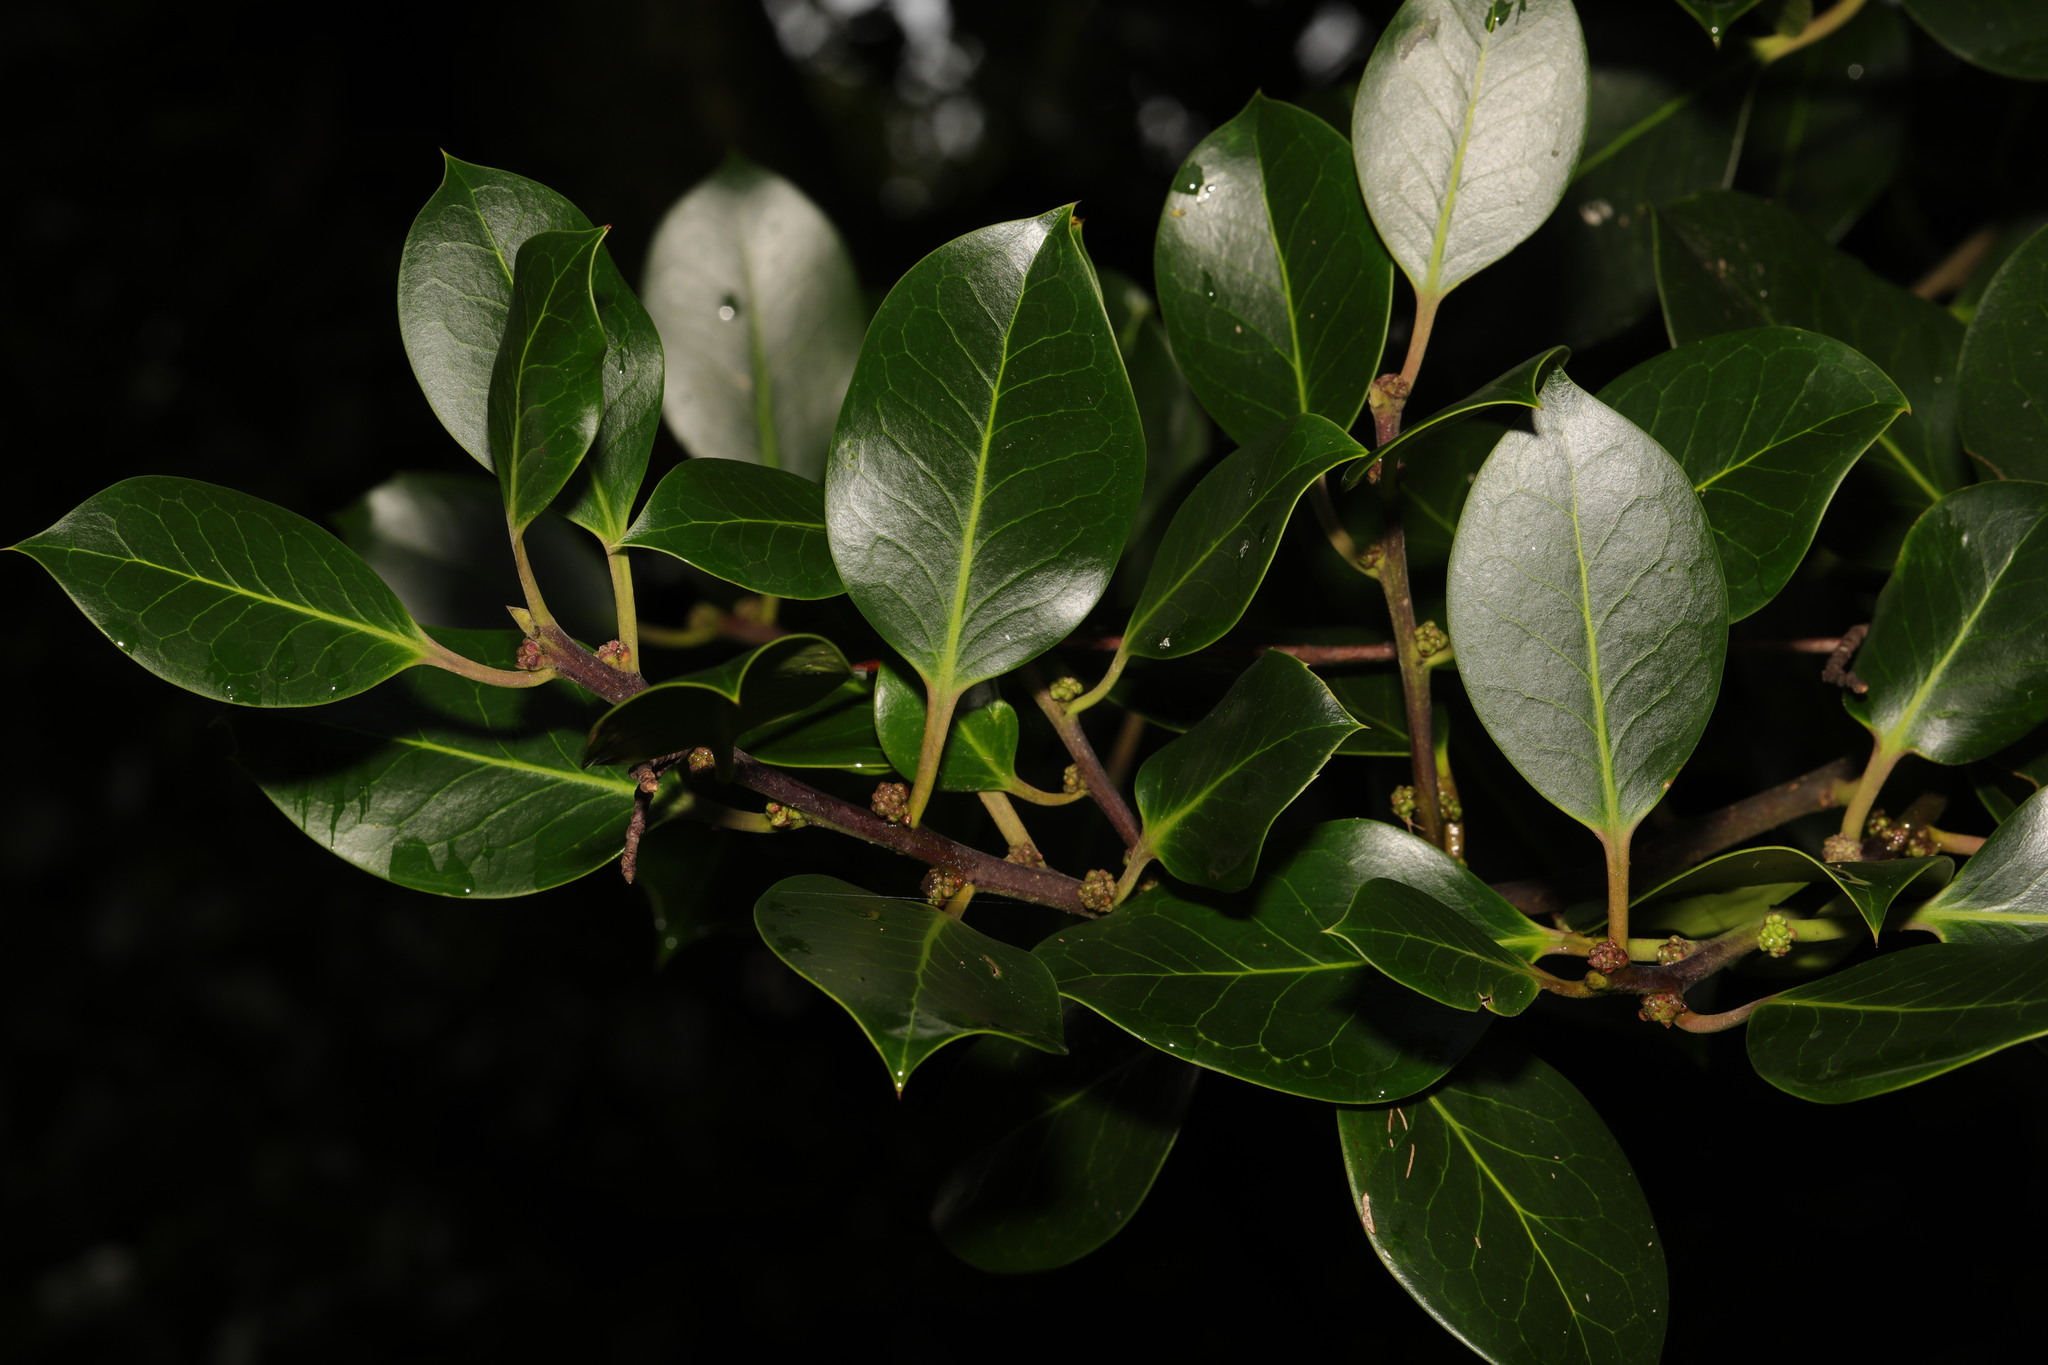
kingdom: Plantae
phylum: Tracheophyta
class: Magnoliopsida
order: Aquifoliales
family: Aquifoliaceae
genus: Ilex
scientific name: Ilex altaclerensis
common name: Highclere holly
